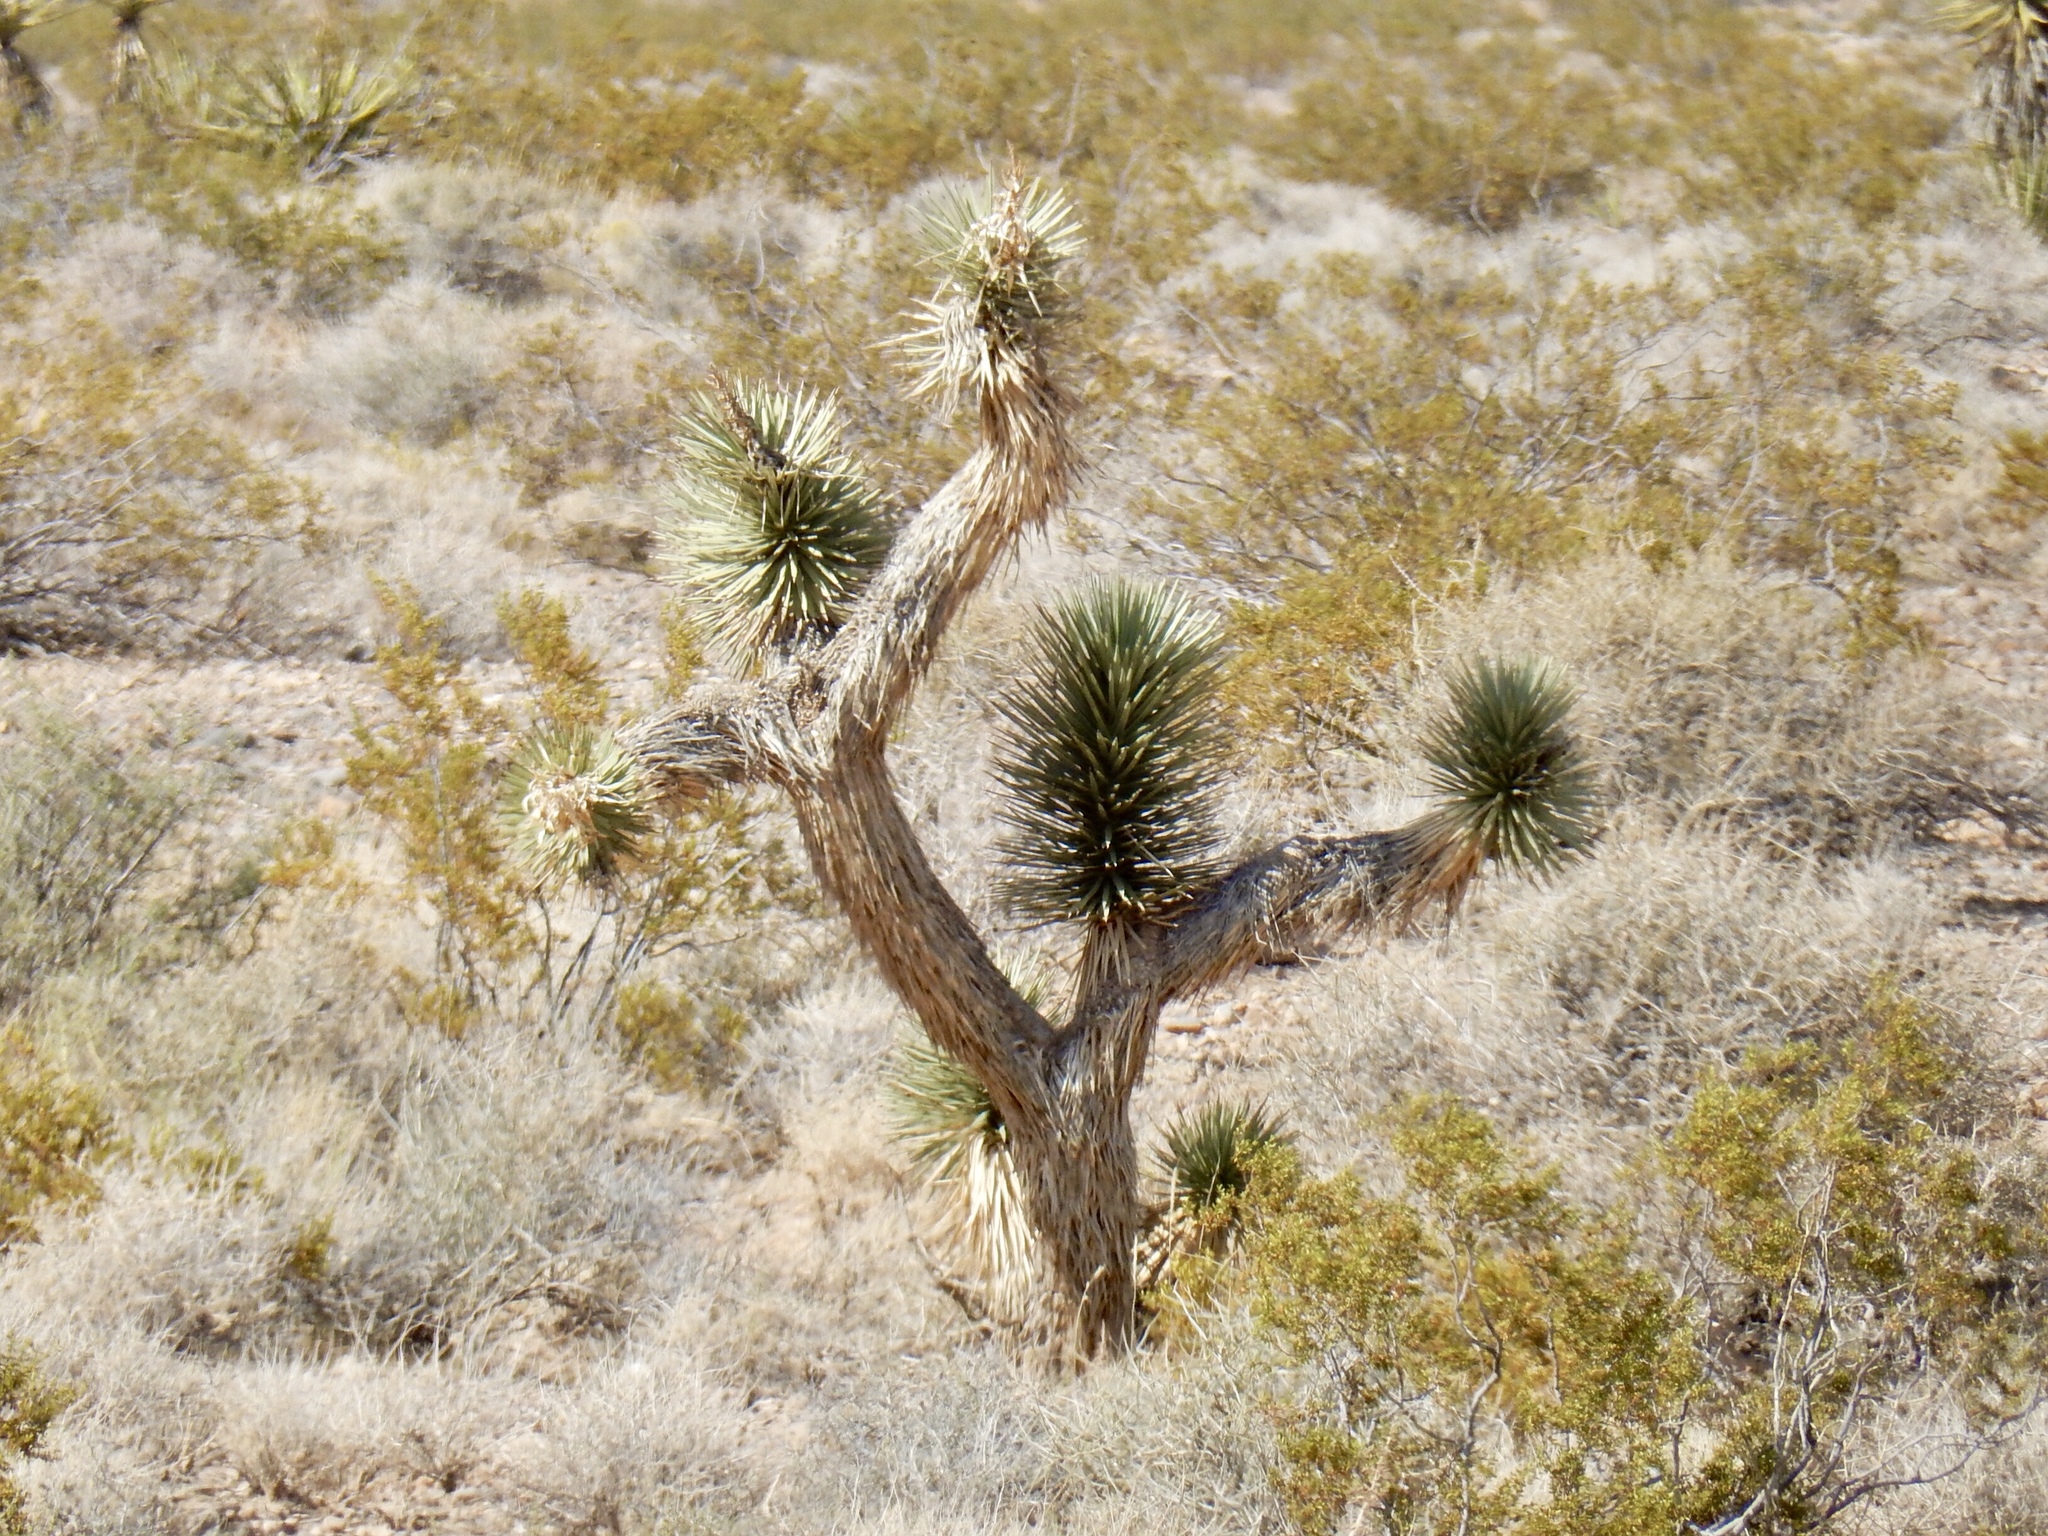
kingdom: Plantae
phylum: Tracheophyta
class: Liliopsida
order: Asparagales
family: Asparagaceae
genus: Yucca
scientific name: Yucca brevifolia
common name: Joshua tree
